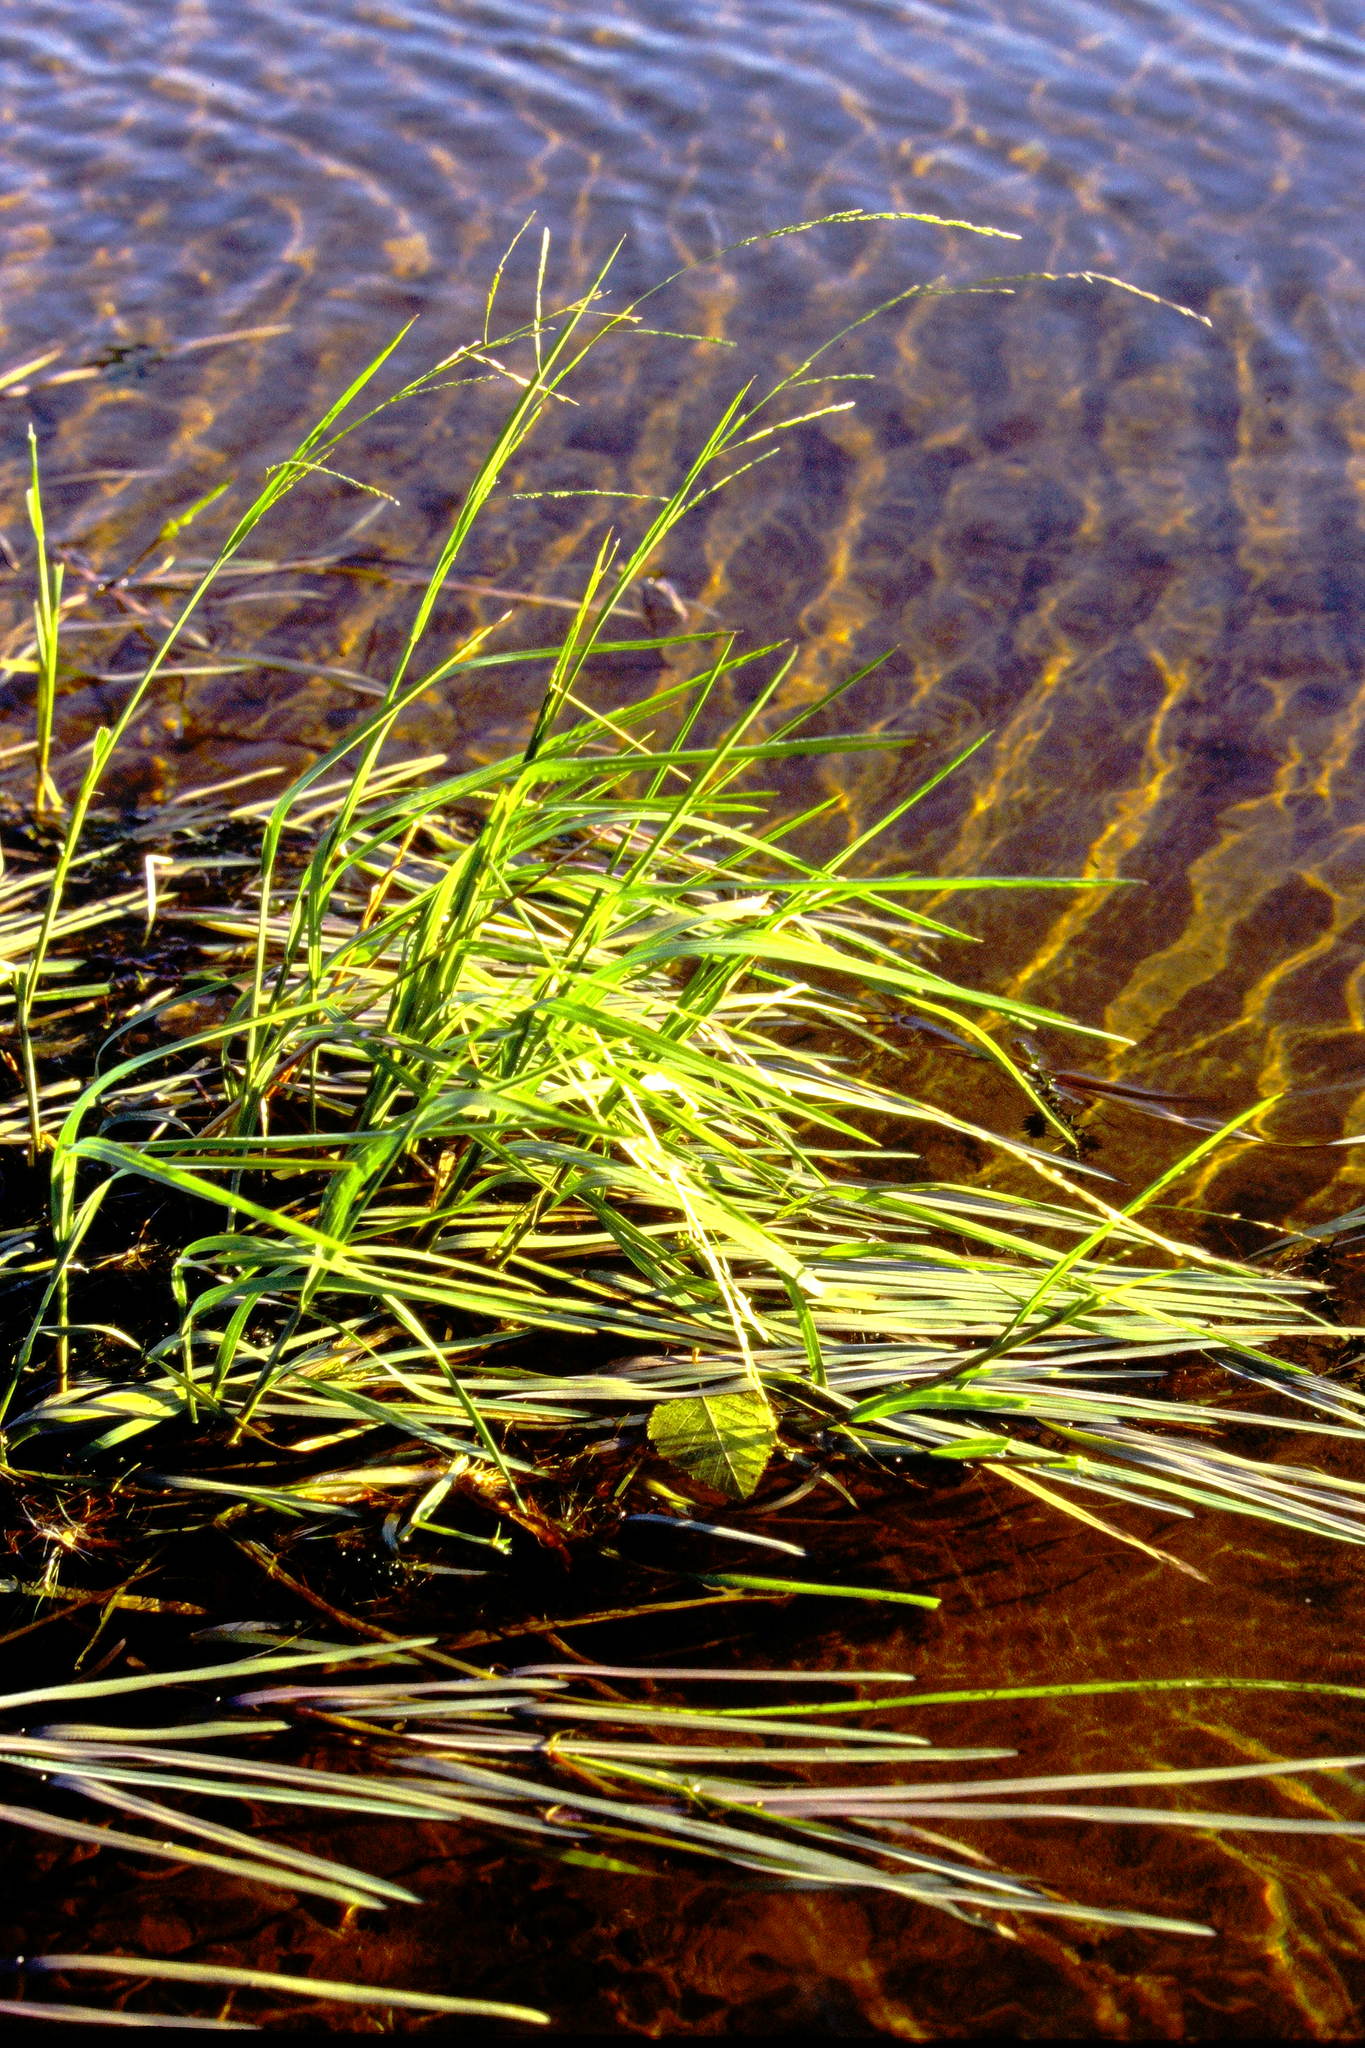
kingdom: Plantae
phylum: Tracheophyta
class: Liliopsida
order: Poales
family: Poaceae
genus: Glyceria
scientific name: Glyceria borealis
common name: Boreal glyceria
